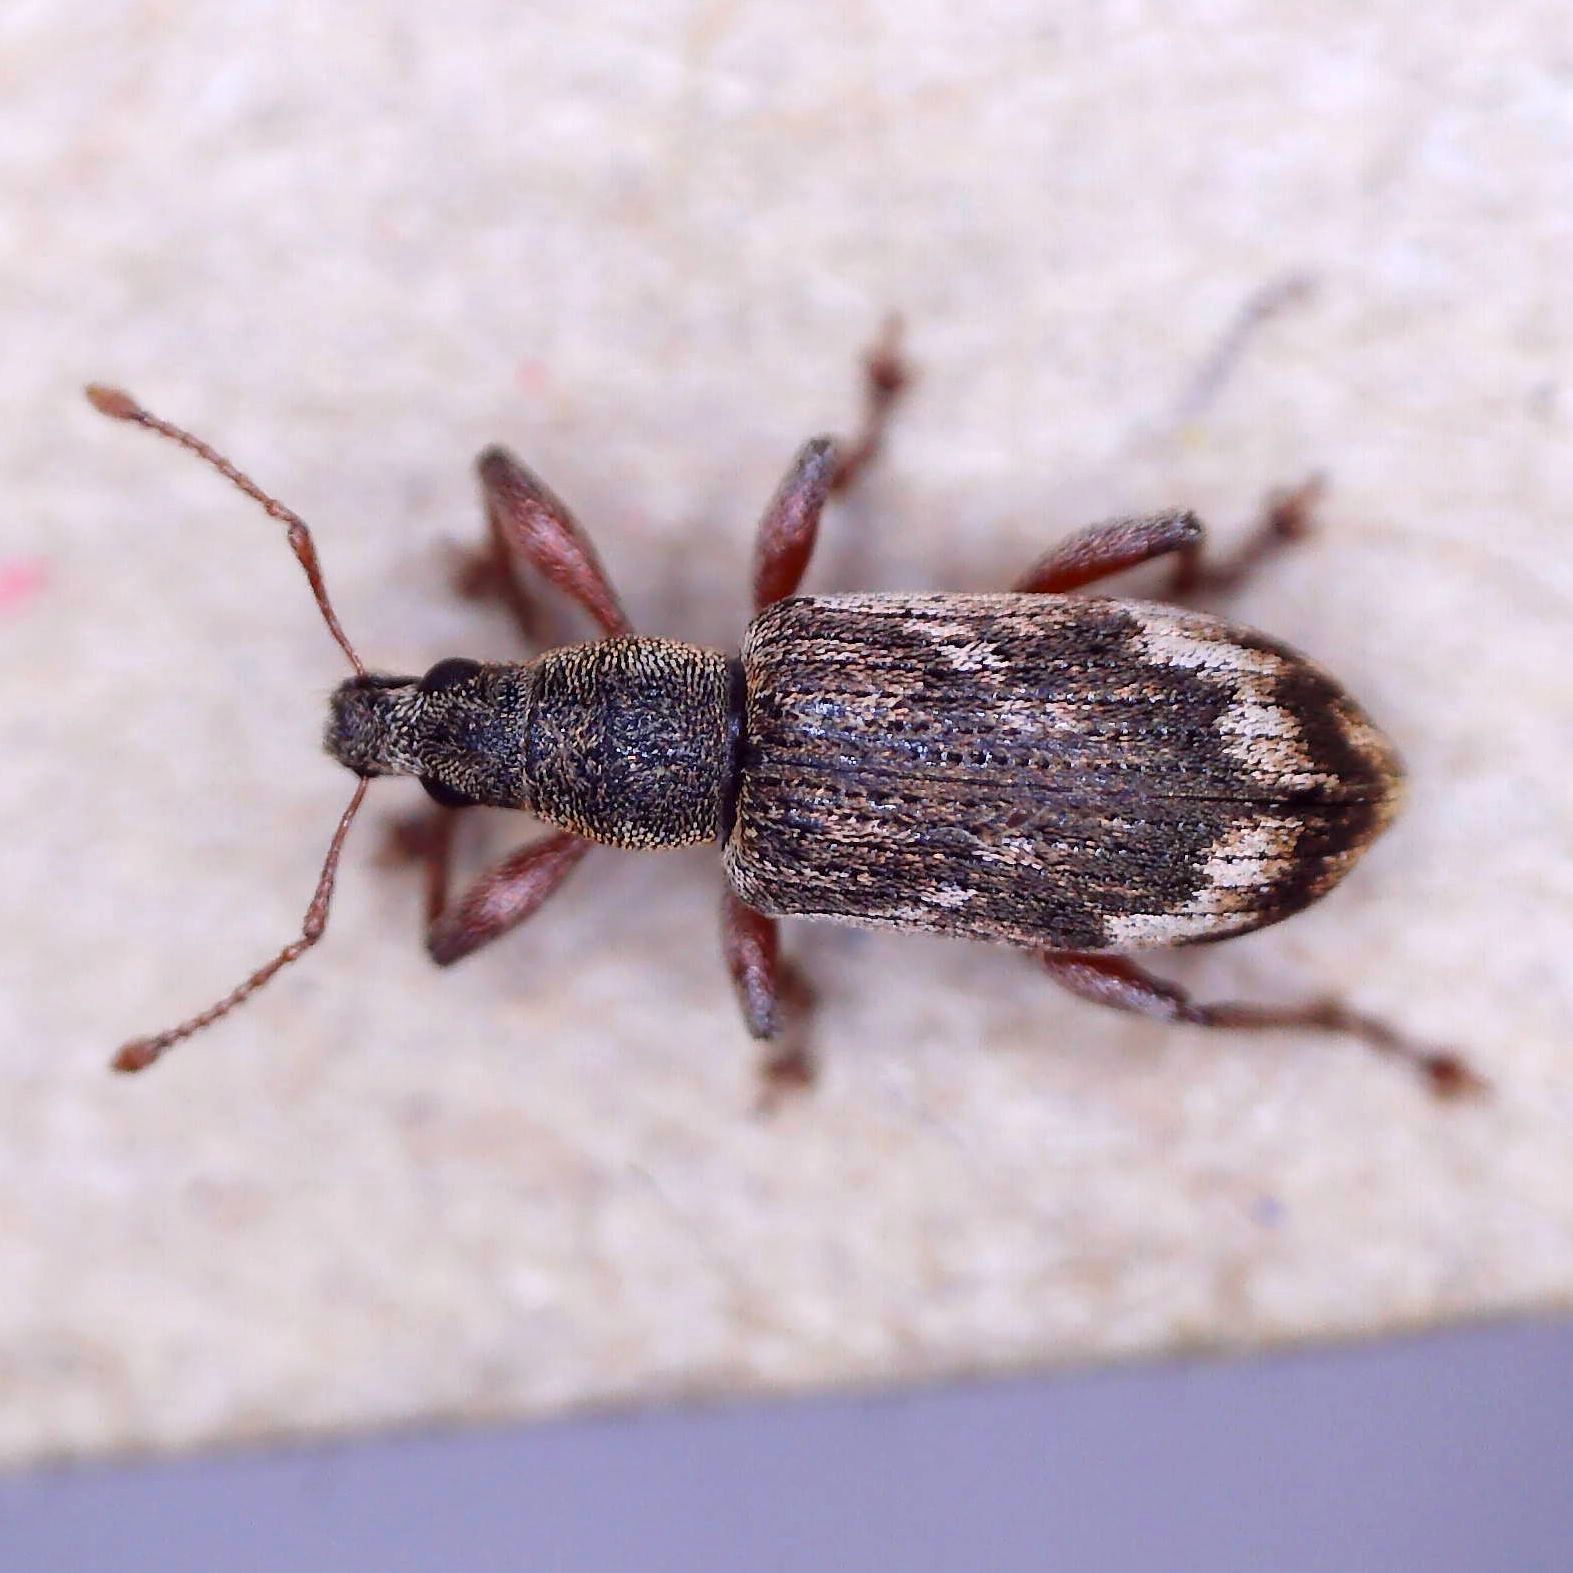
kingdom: Animalia
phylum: Arthropoda
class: Insecta
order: Coleoptera
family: Curculionidae
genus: Polydrusus
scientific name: Polydrusus tereticollis
